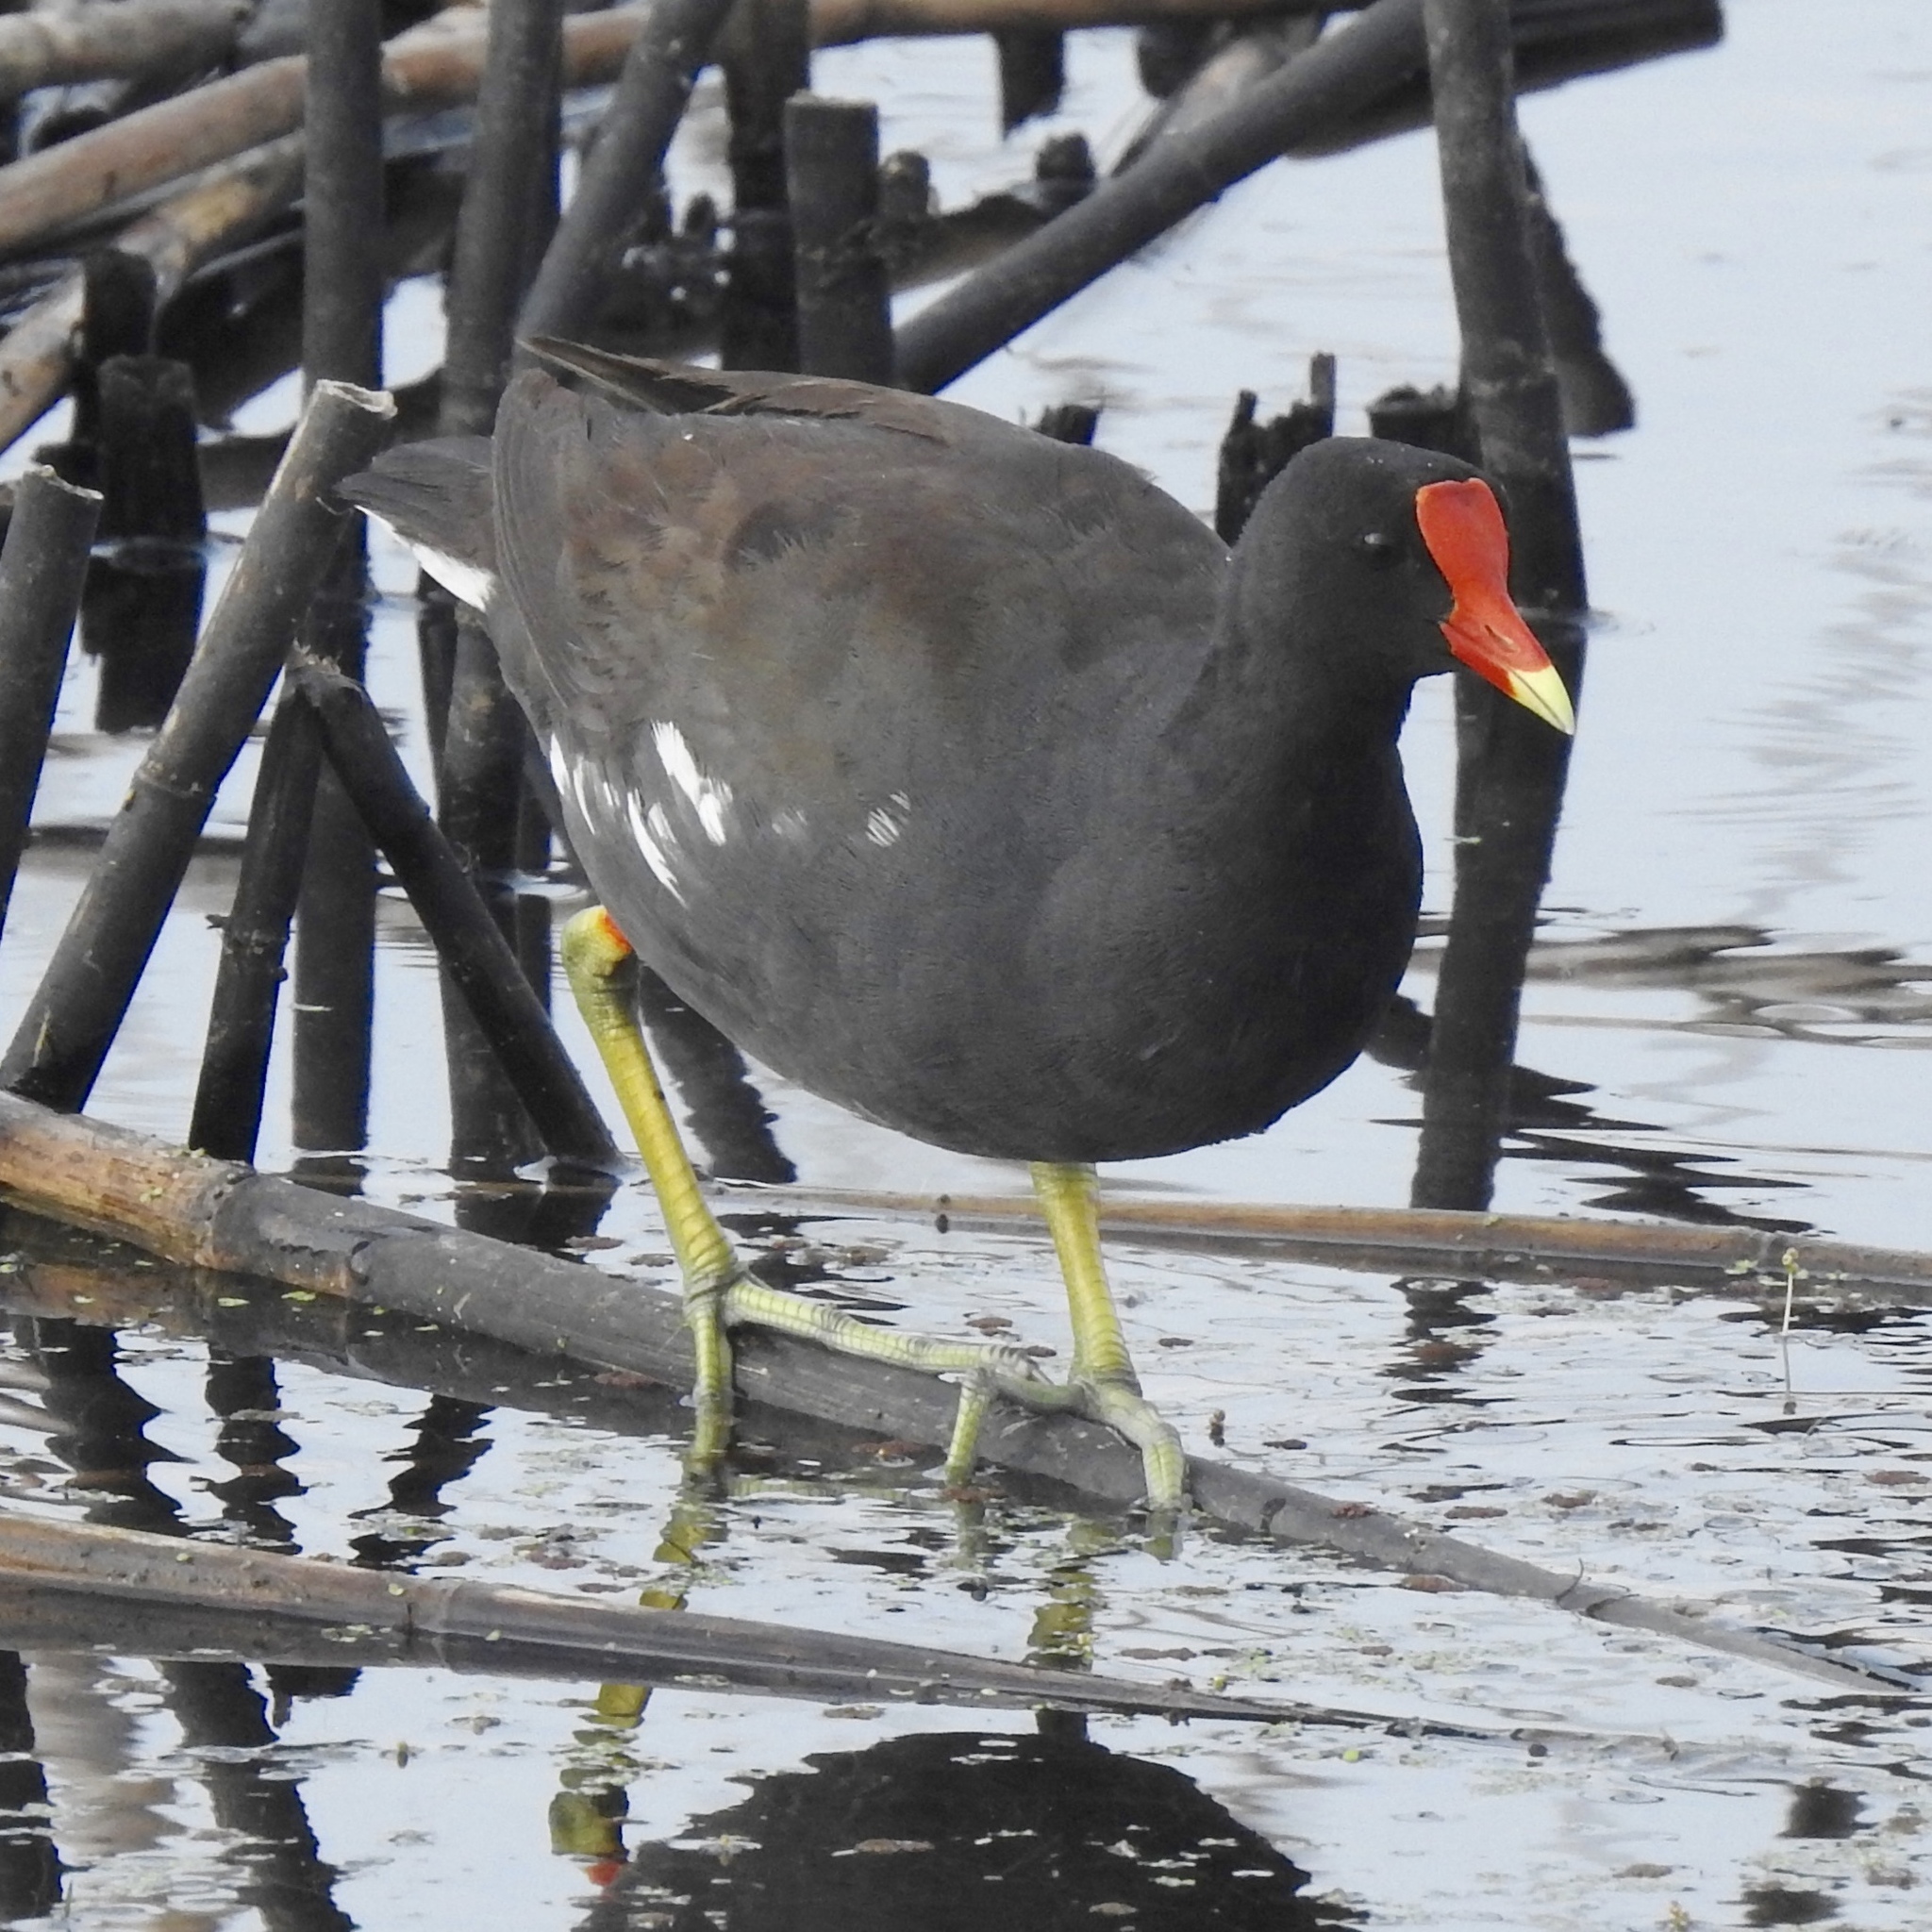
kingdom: Animalia
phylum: Chordata
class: Aves
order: Gruiformes
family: Rallidae
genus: Gallinula
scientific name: Gallinula chloropus
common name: Common moorhen
